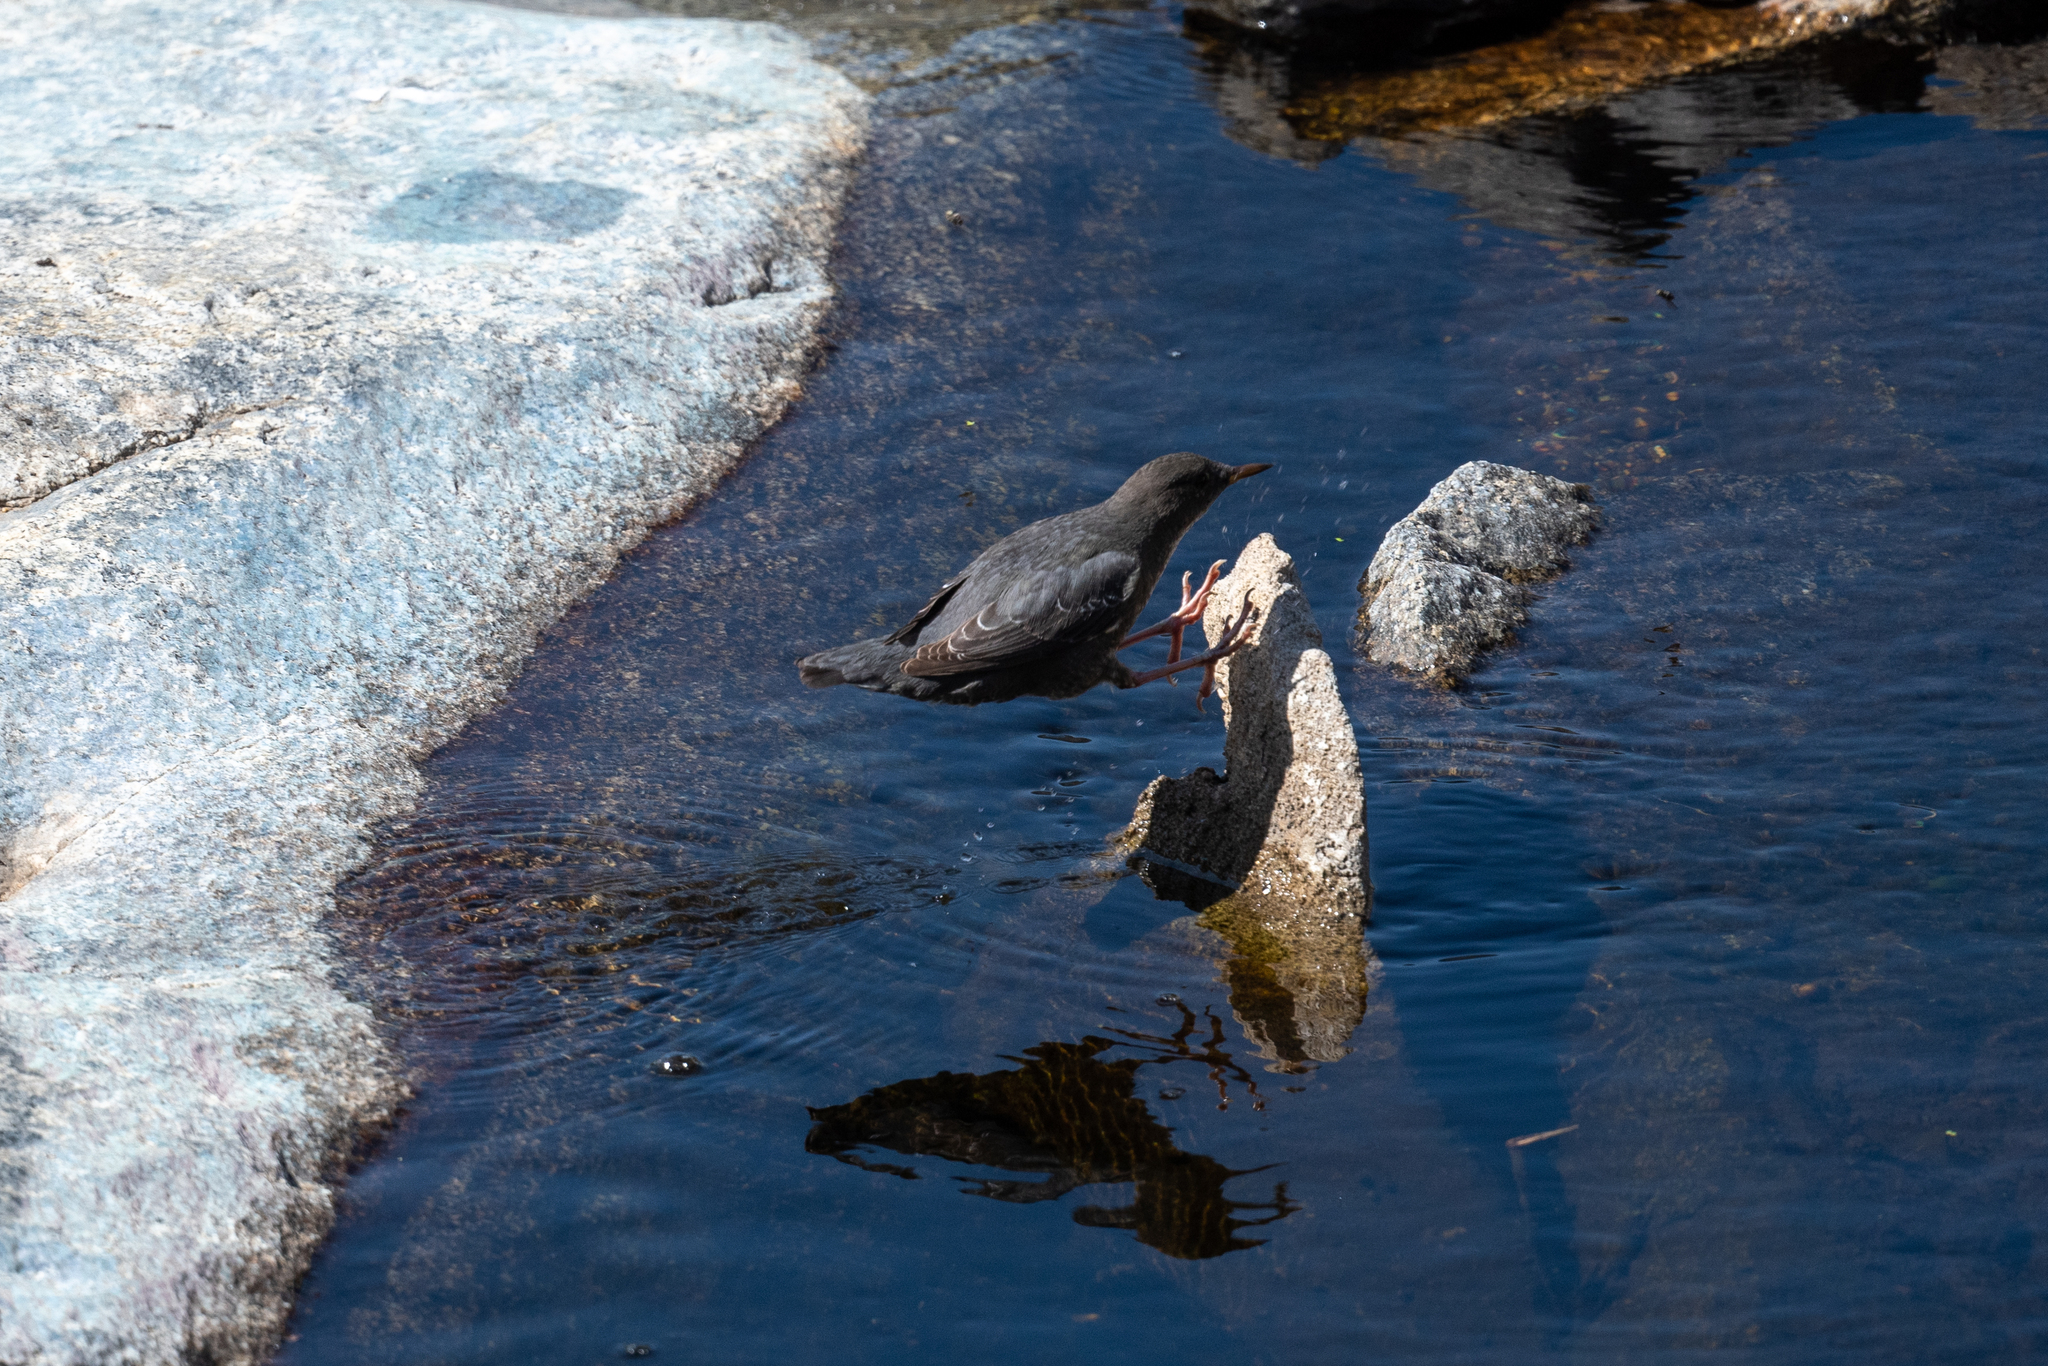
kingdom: Animalia
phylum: Chordata
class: Aves
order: Passeriformes
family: Cinclidae
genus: Cinclus
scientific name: Cinclus mexicanus
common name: American dipper
